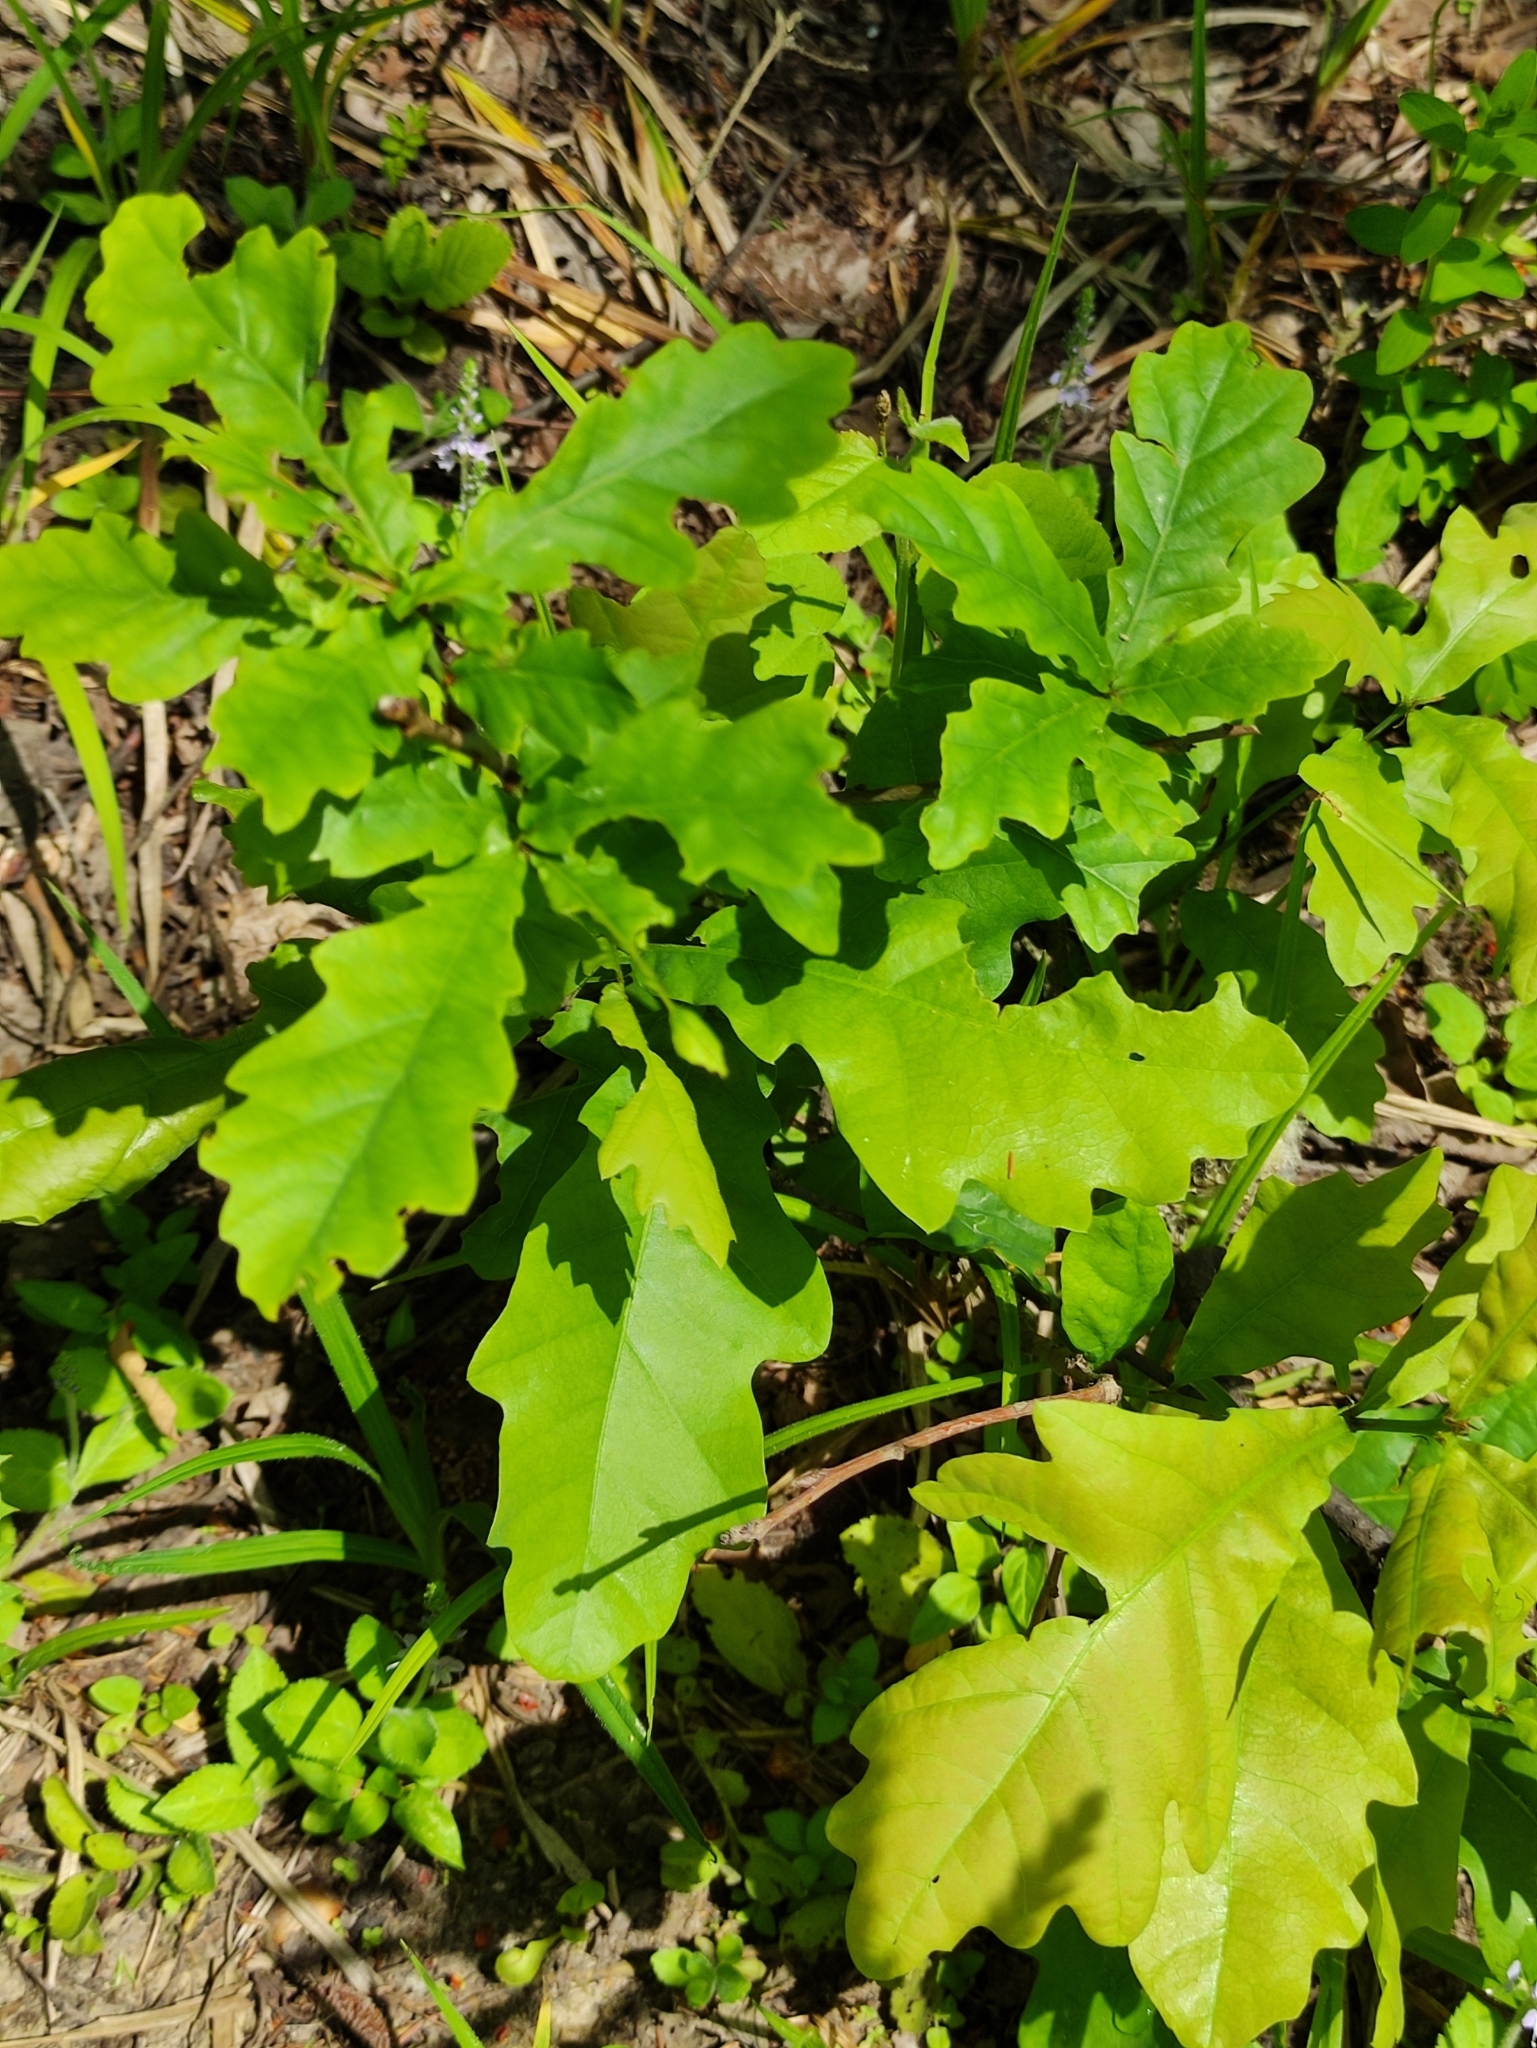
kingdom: Plantae
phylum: Tracheophyta
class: Magnoliopsida
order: Fagales
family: Fagaceae
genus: Quercus
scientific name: Quercus robur
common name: Pedunculate oak
